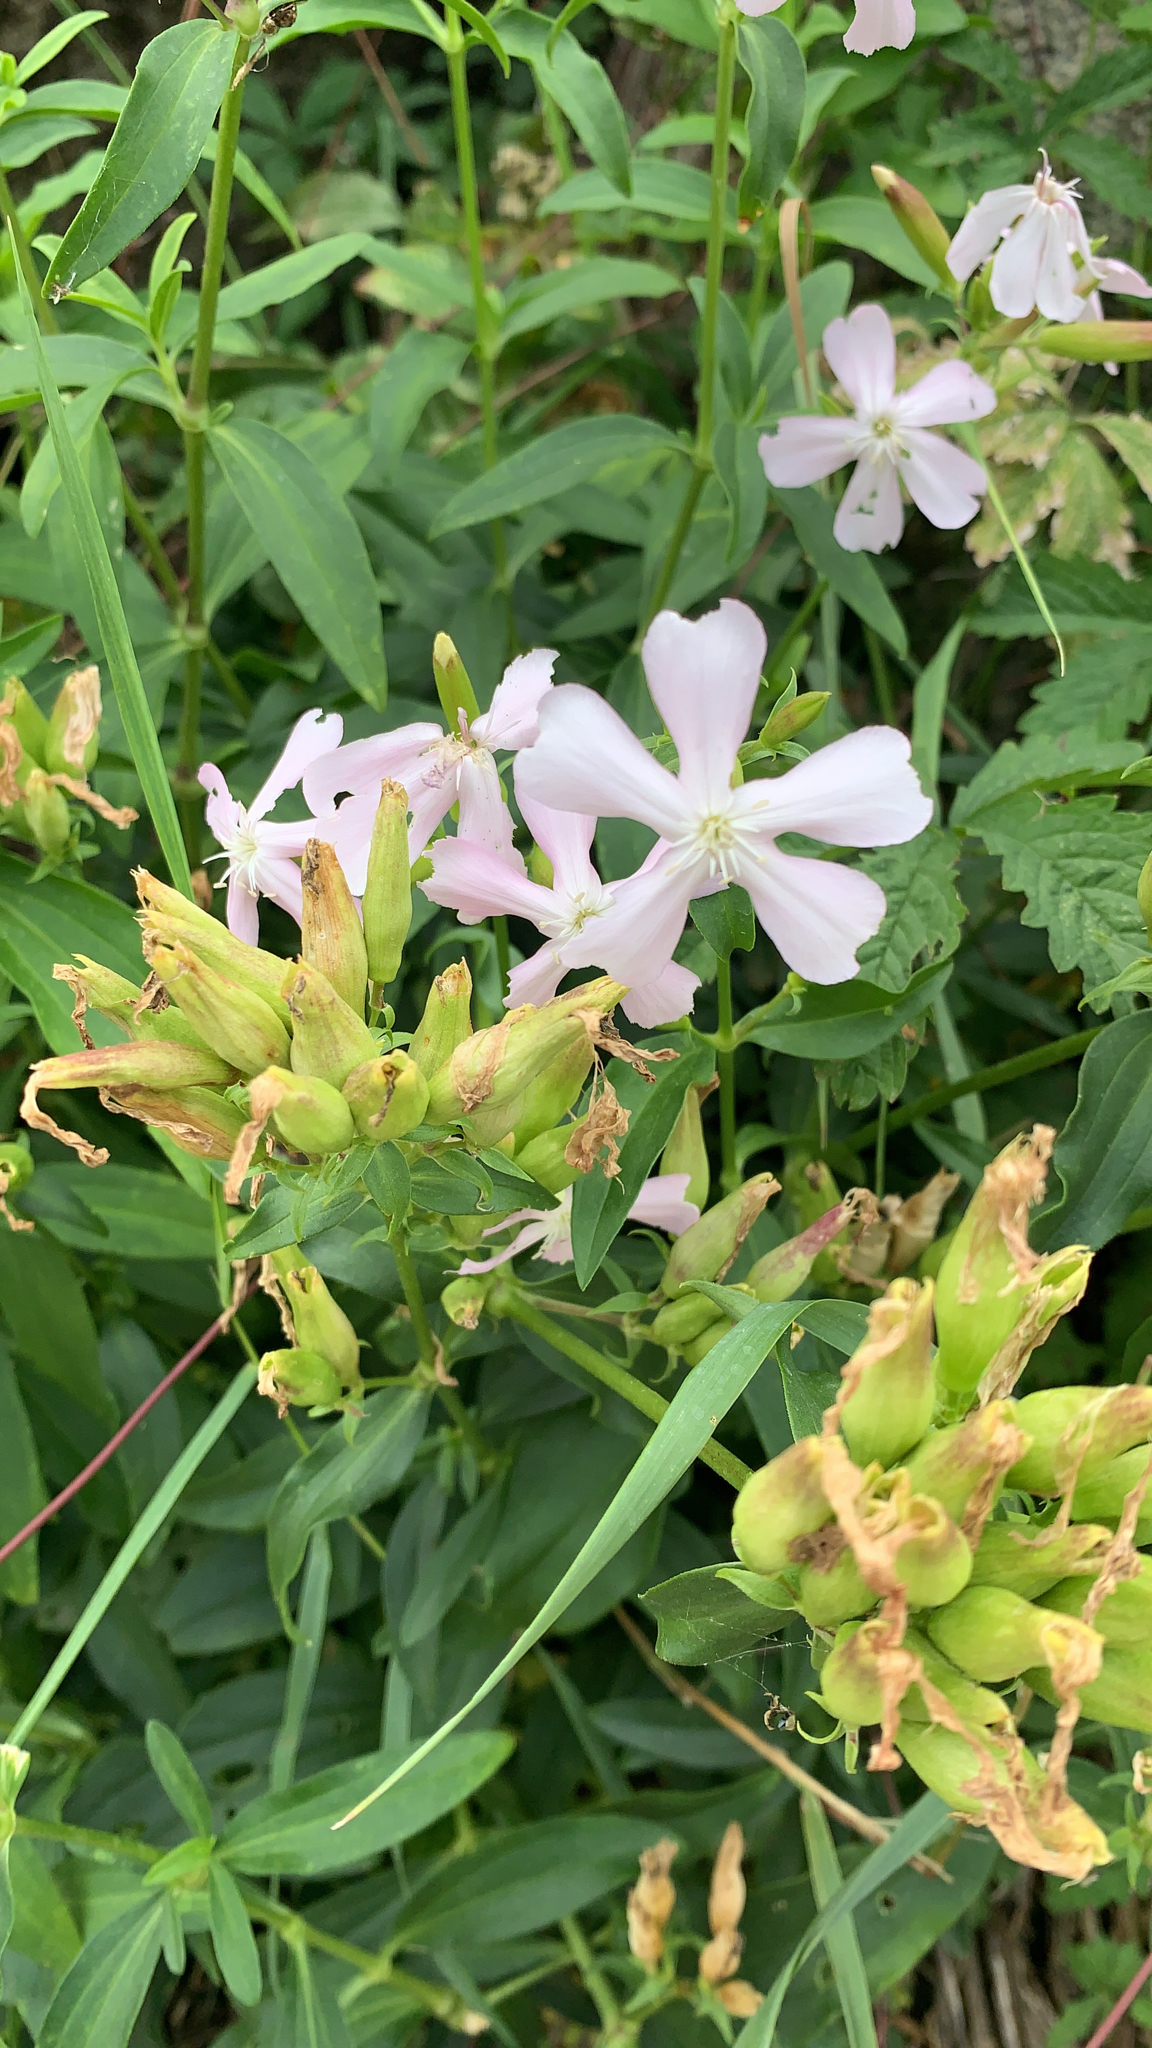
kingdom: Plantae
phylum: Tracheophyta
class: Magnoliopsida
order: Caryophyllales
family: Caryophyllaceae
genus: Saponaria
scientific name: Saponaria officinalis
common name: Soapwort
